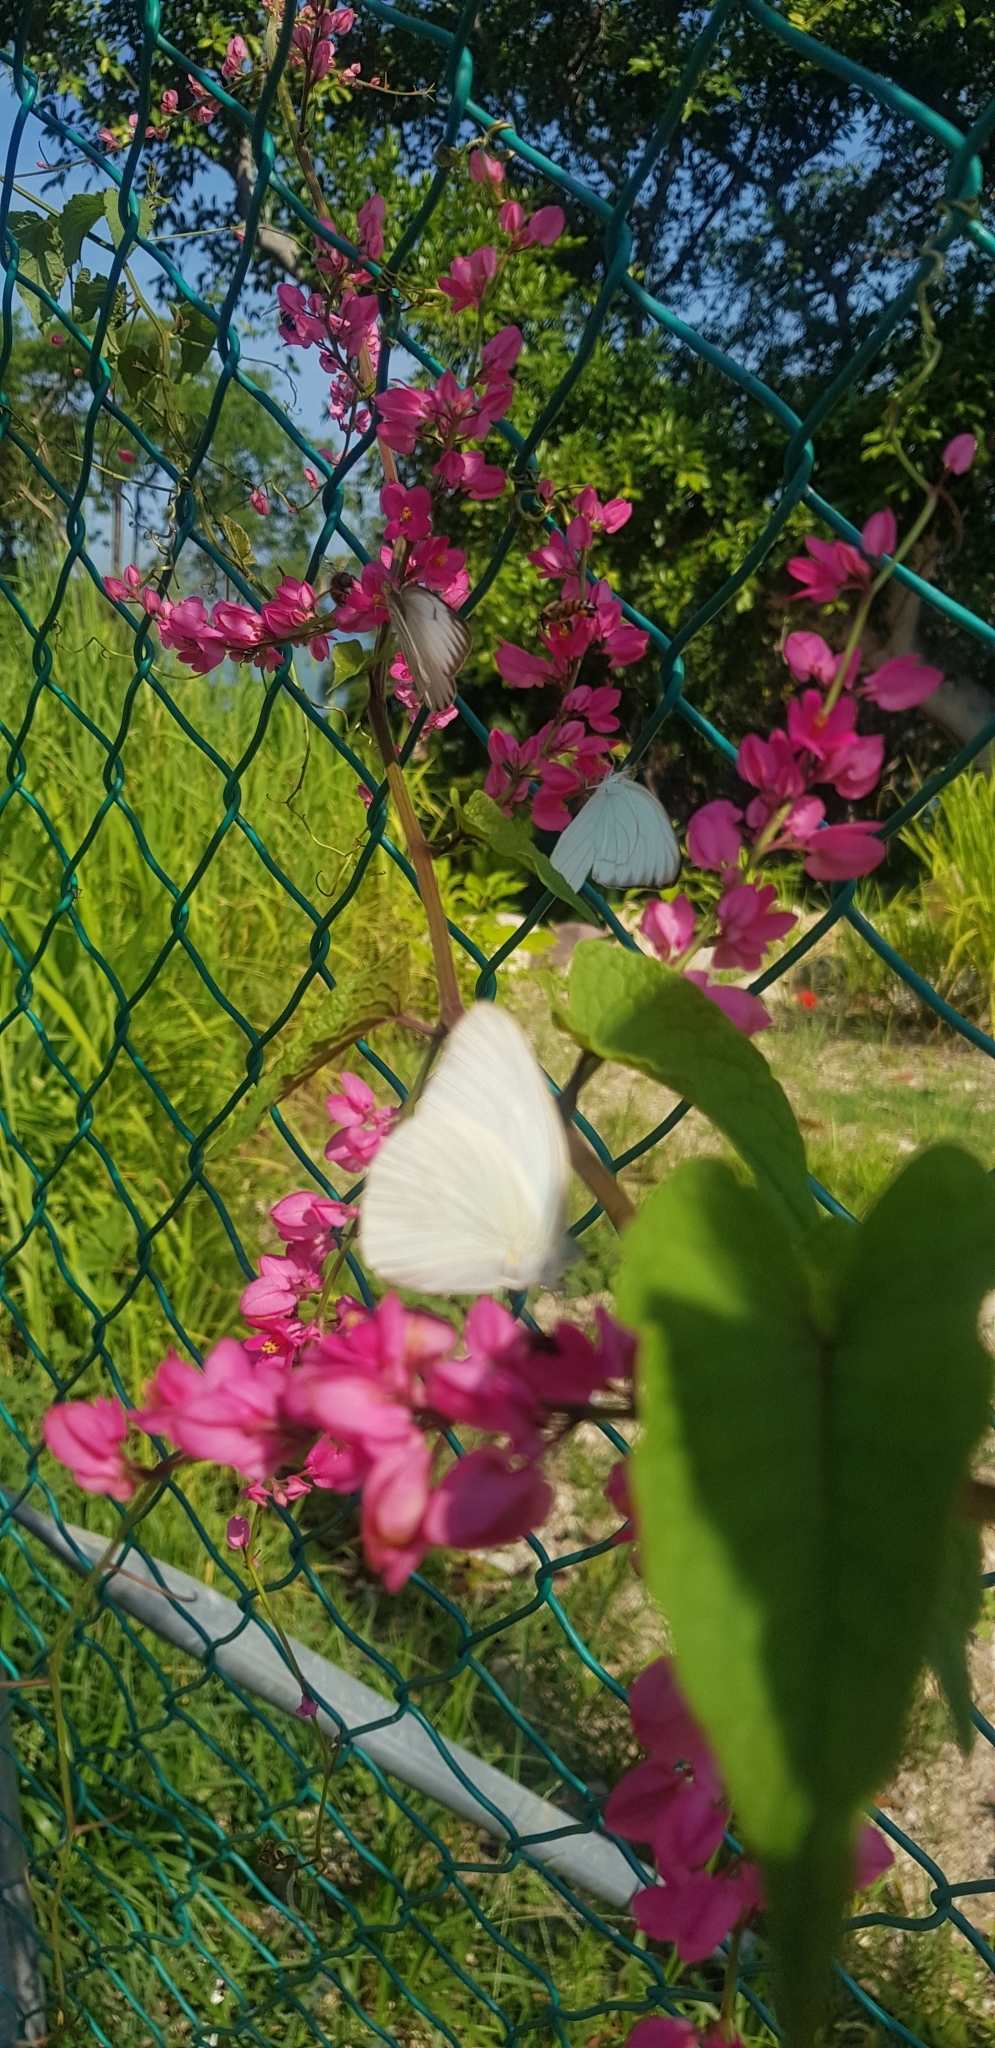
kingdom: Animalia
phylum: Arthropoda
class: Insecta
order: Lepidoptera
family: Pieridae
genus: Ascia
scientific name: Ascia monuste
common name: Great southern white
